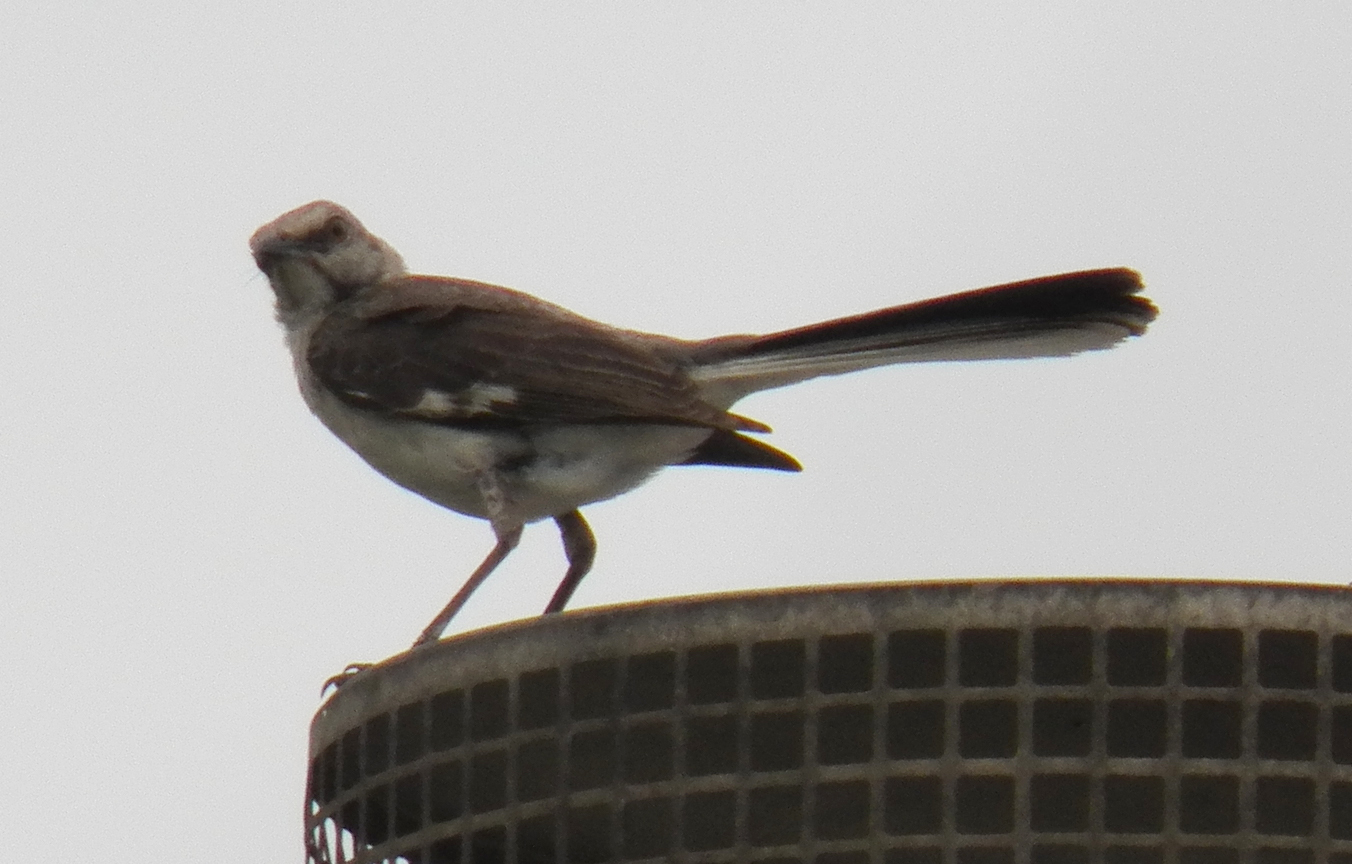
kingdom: Animalia
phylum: Chordata
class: Aves
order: Passeriformes
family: Mimidae
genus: Mimus
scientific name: Mimus polyglottos
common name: Northern mockingbird
